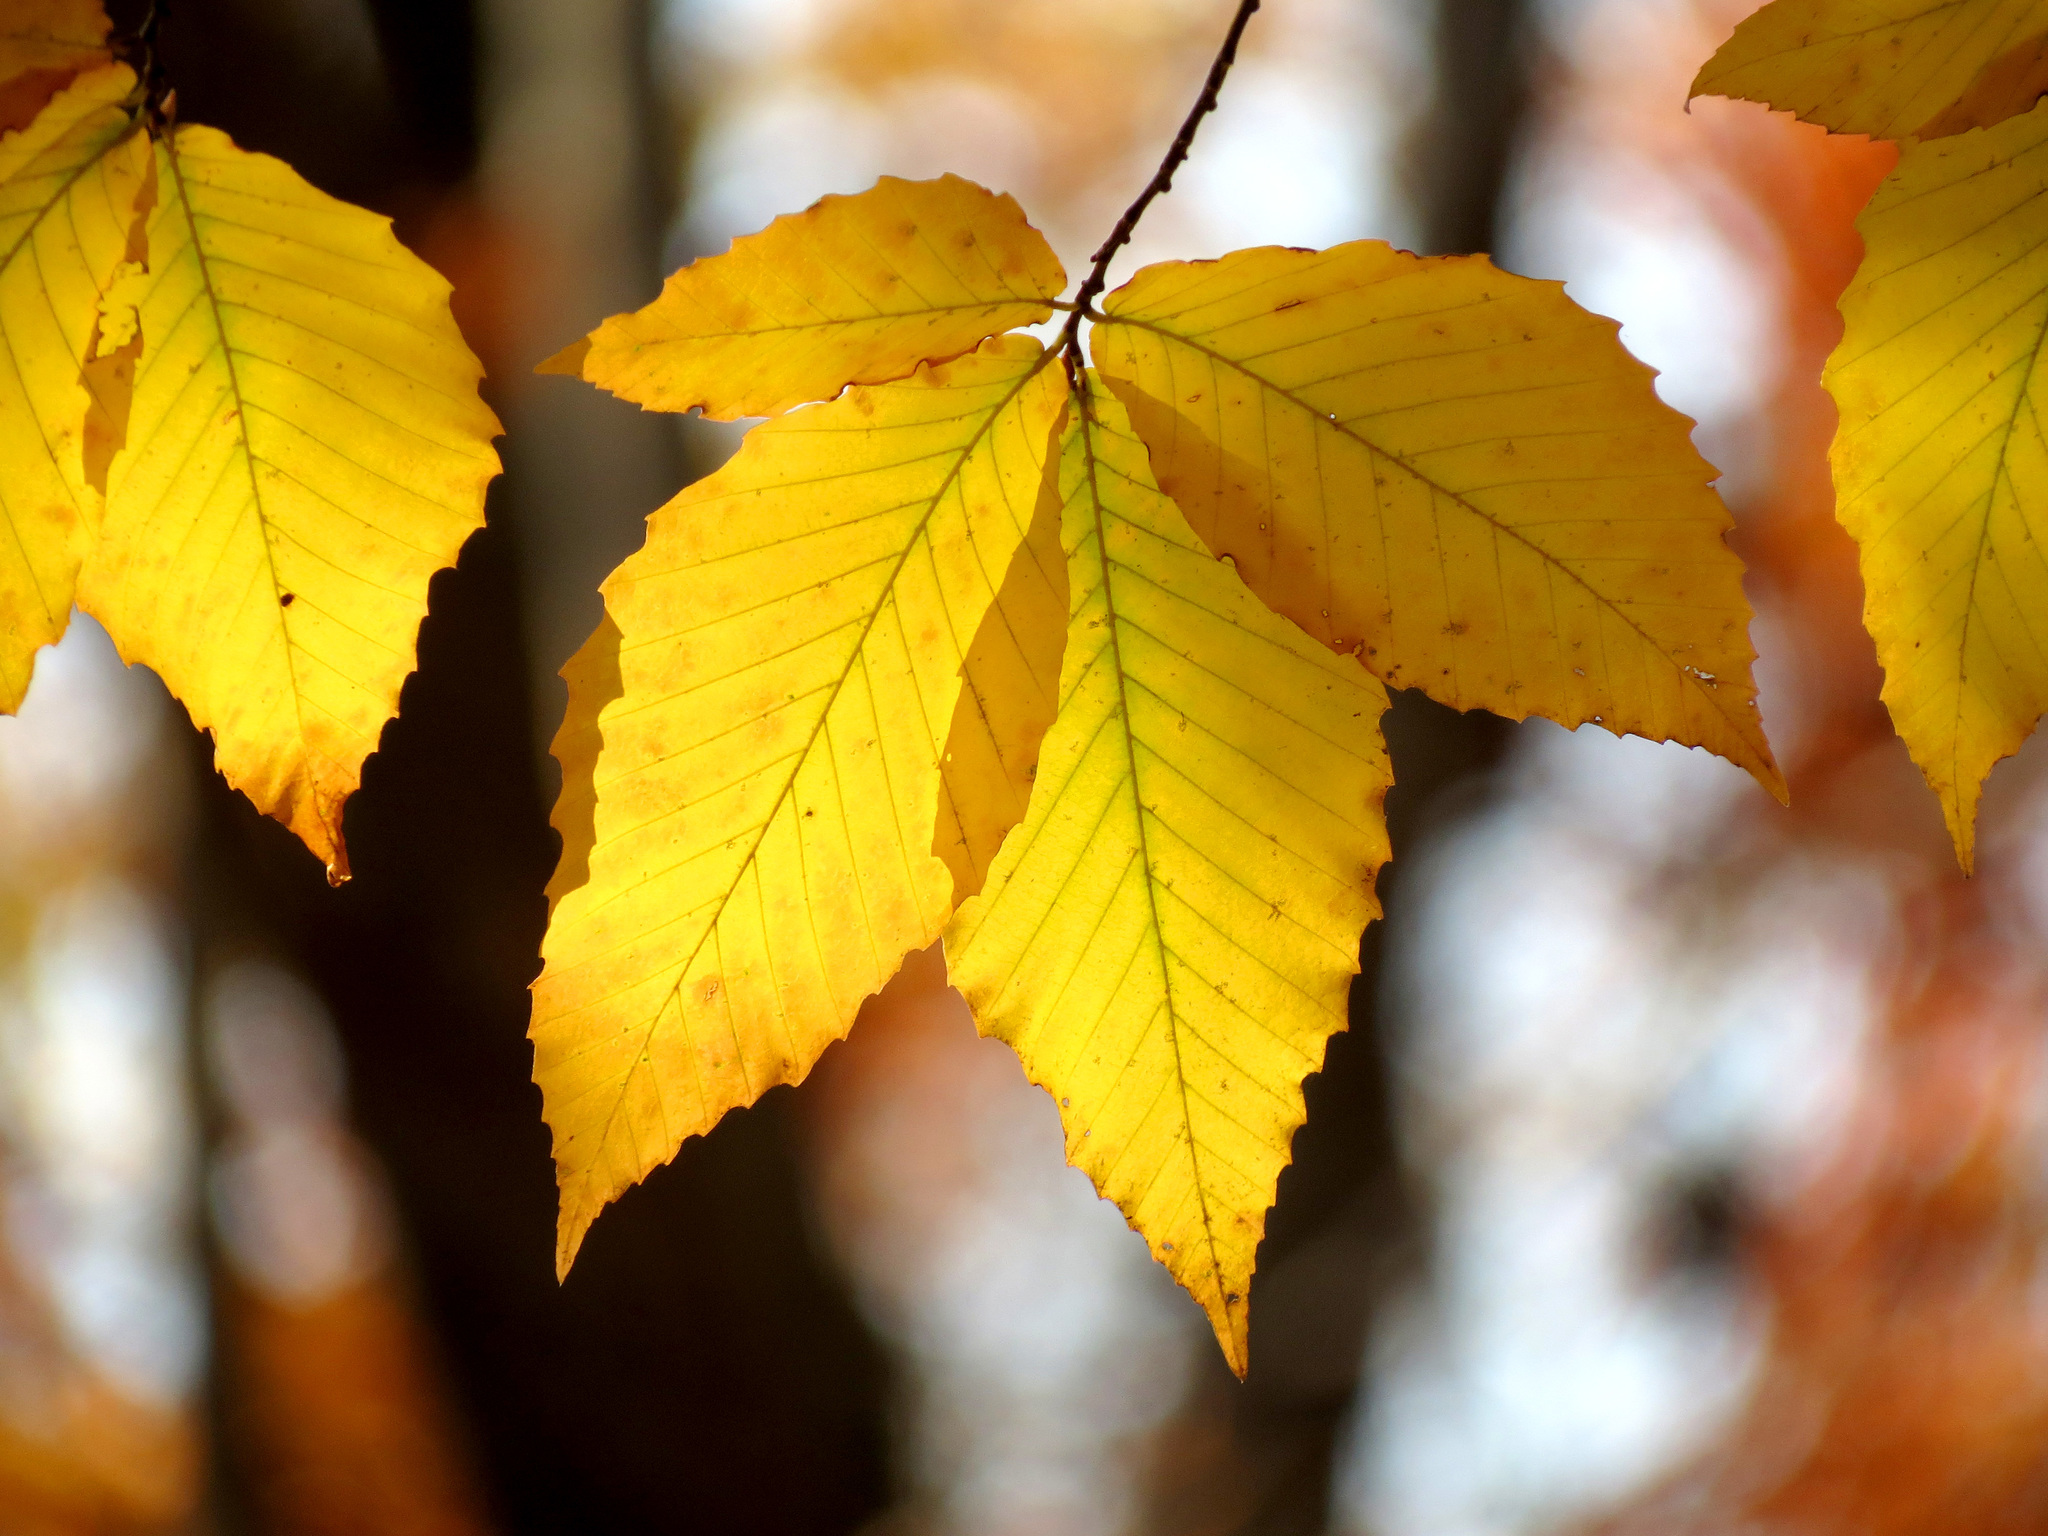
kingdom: Plantae
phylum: Tracheophyta
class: Magnoliopsida
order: Fagales
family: Fagaceae
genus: Fagus
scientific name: Fagus grandifolia
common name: American beech
